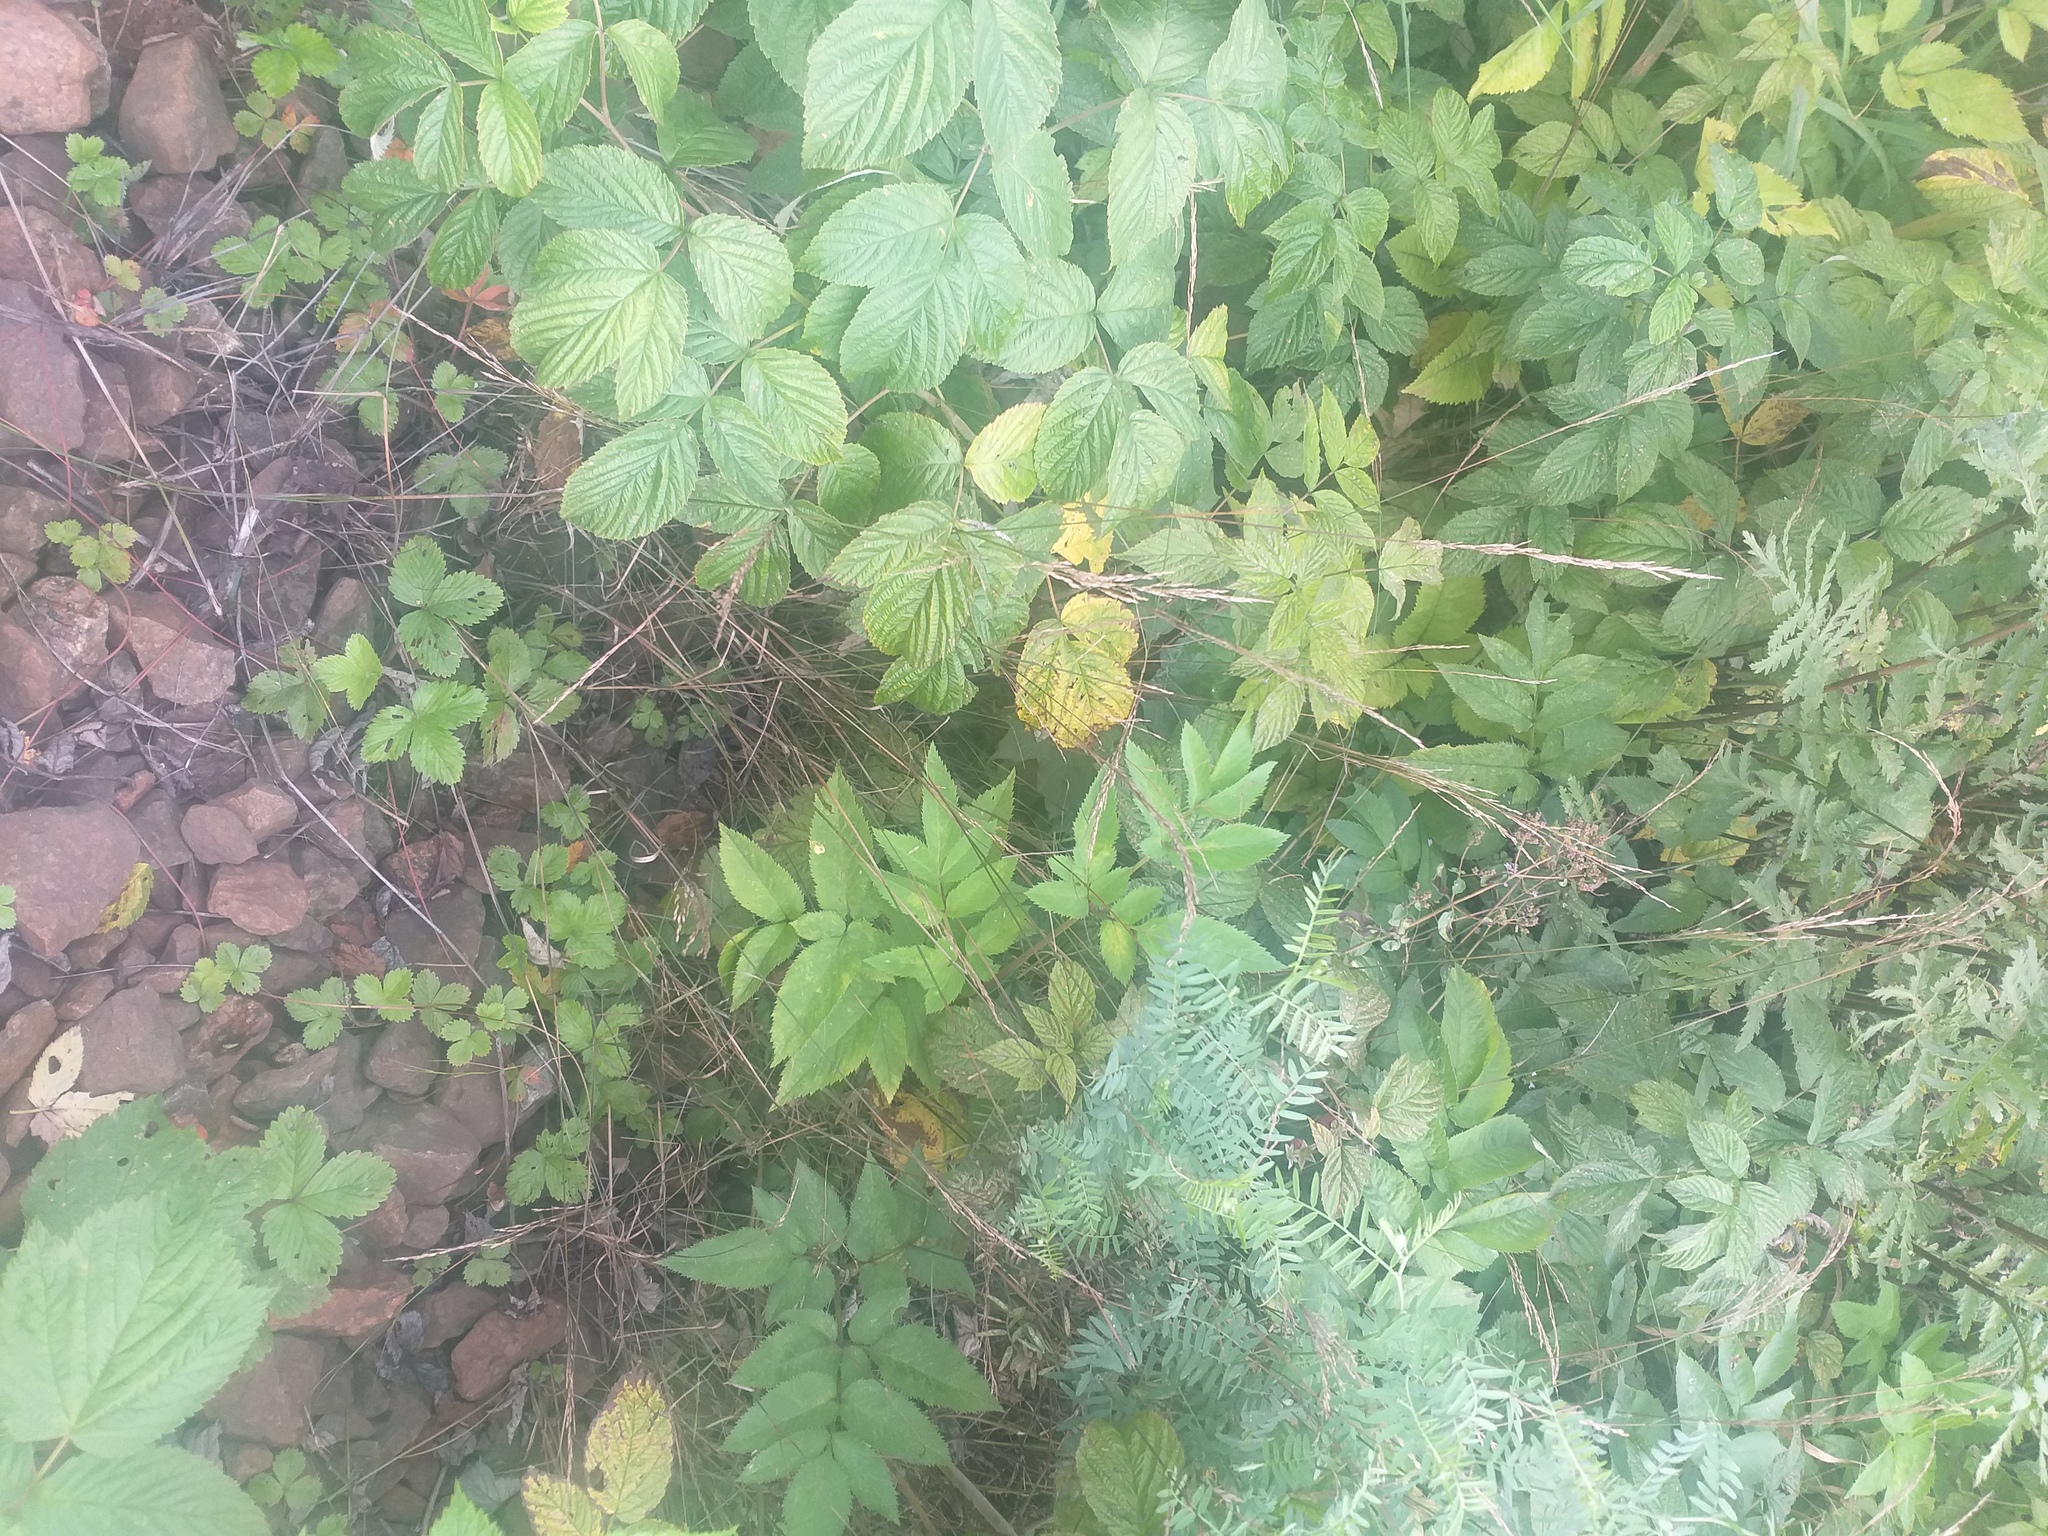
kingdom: Plantae
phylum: Tracheophyta
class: Magnoliopsida
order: Rosales
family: Rosaceae
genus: Rubus
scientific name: Rubus idaeus
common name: Raspberry
